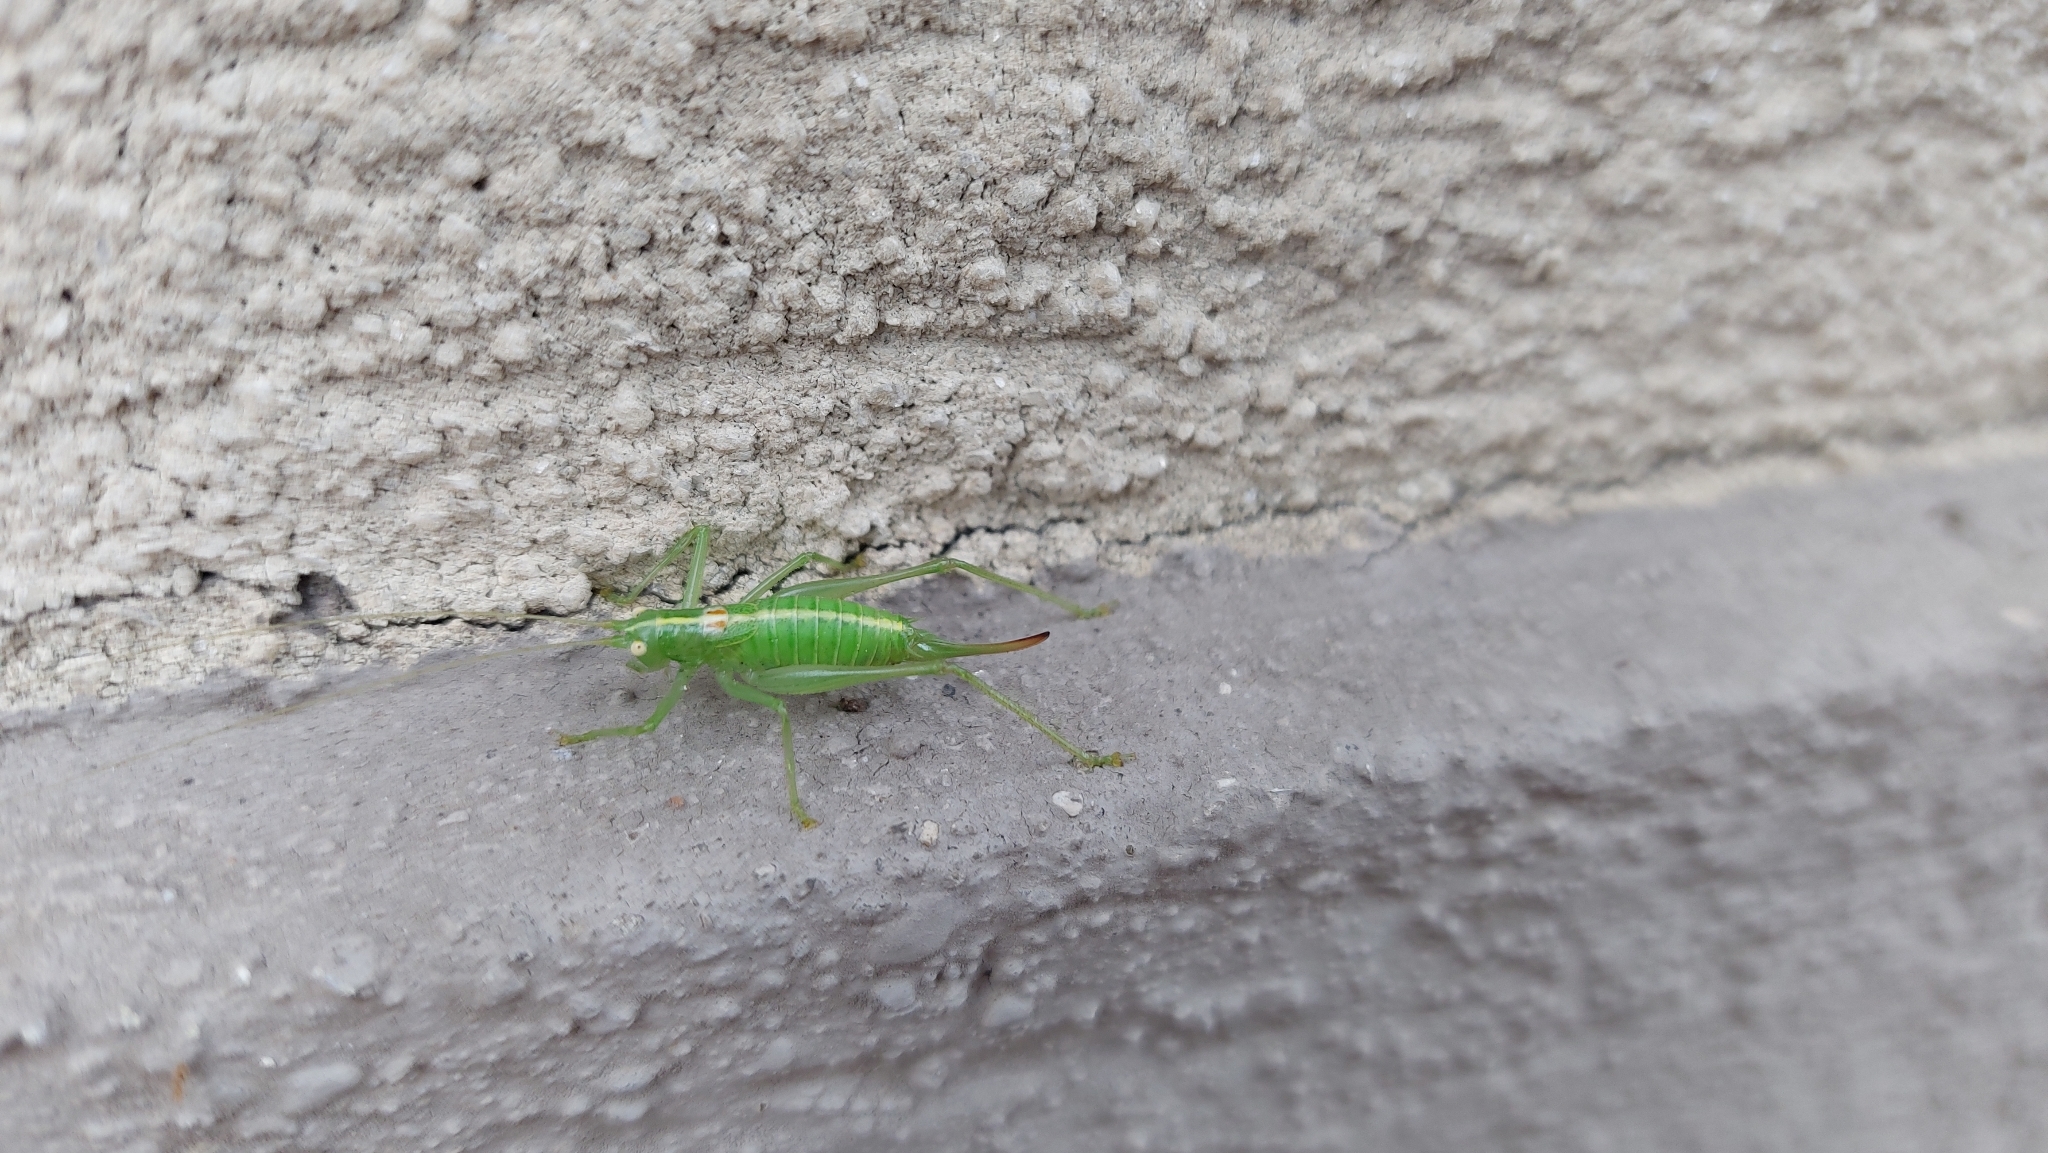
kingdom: Animalia
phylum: Arthropoda
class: Insecta
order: Orthoptera
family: Tettigoniidae
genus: Meconema
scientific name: Meconema meridionale
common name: Southern oak bush-cricket
